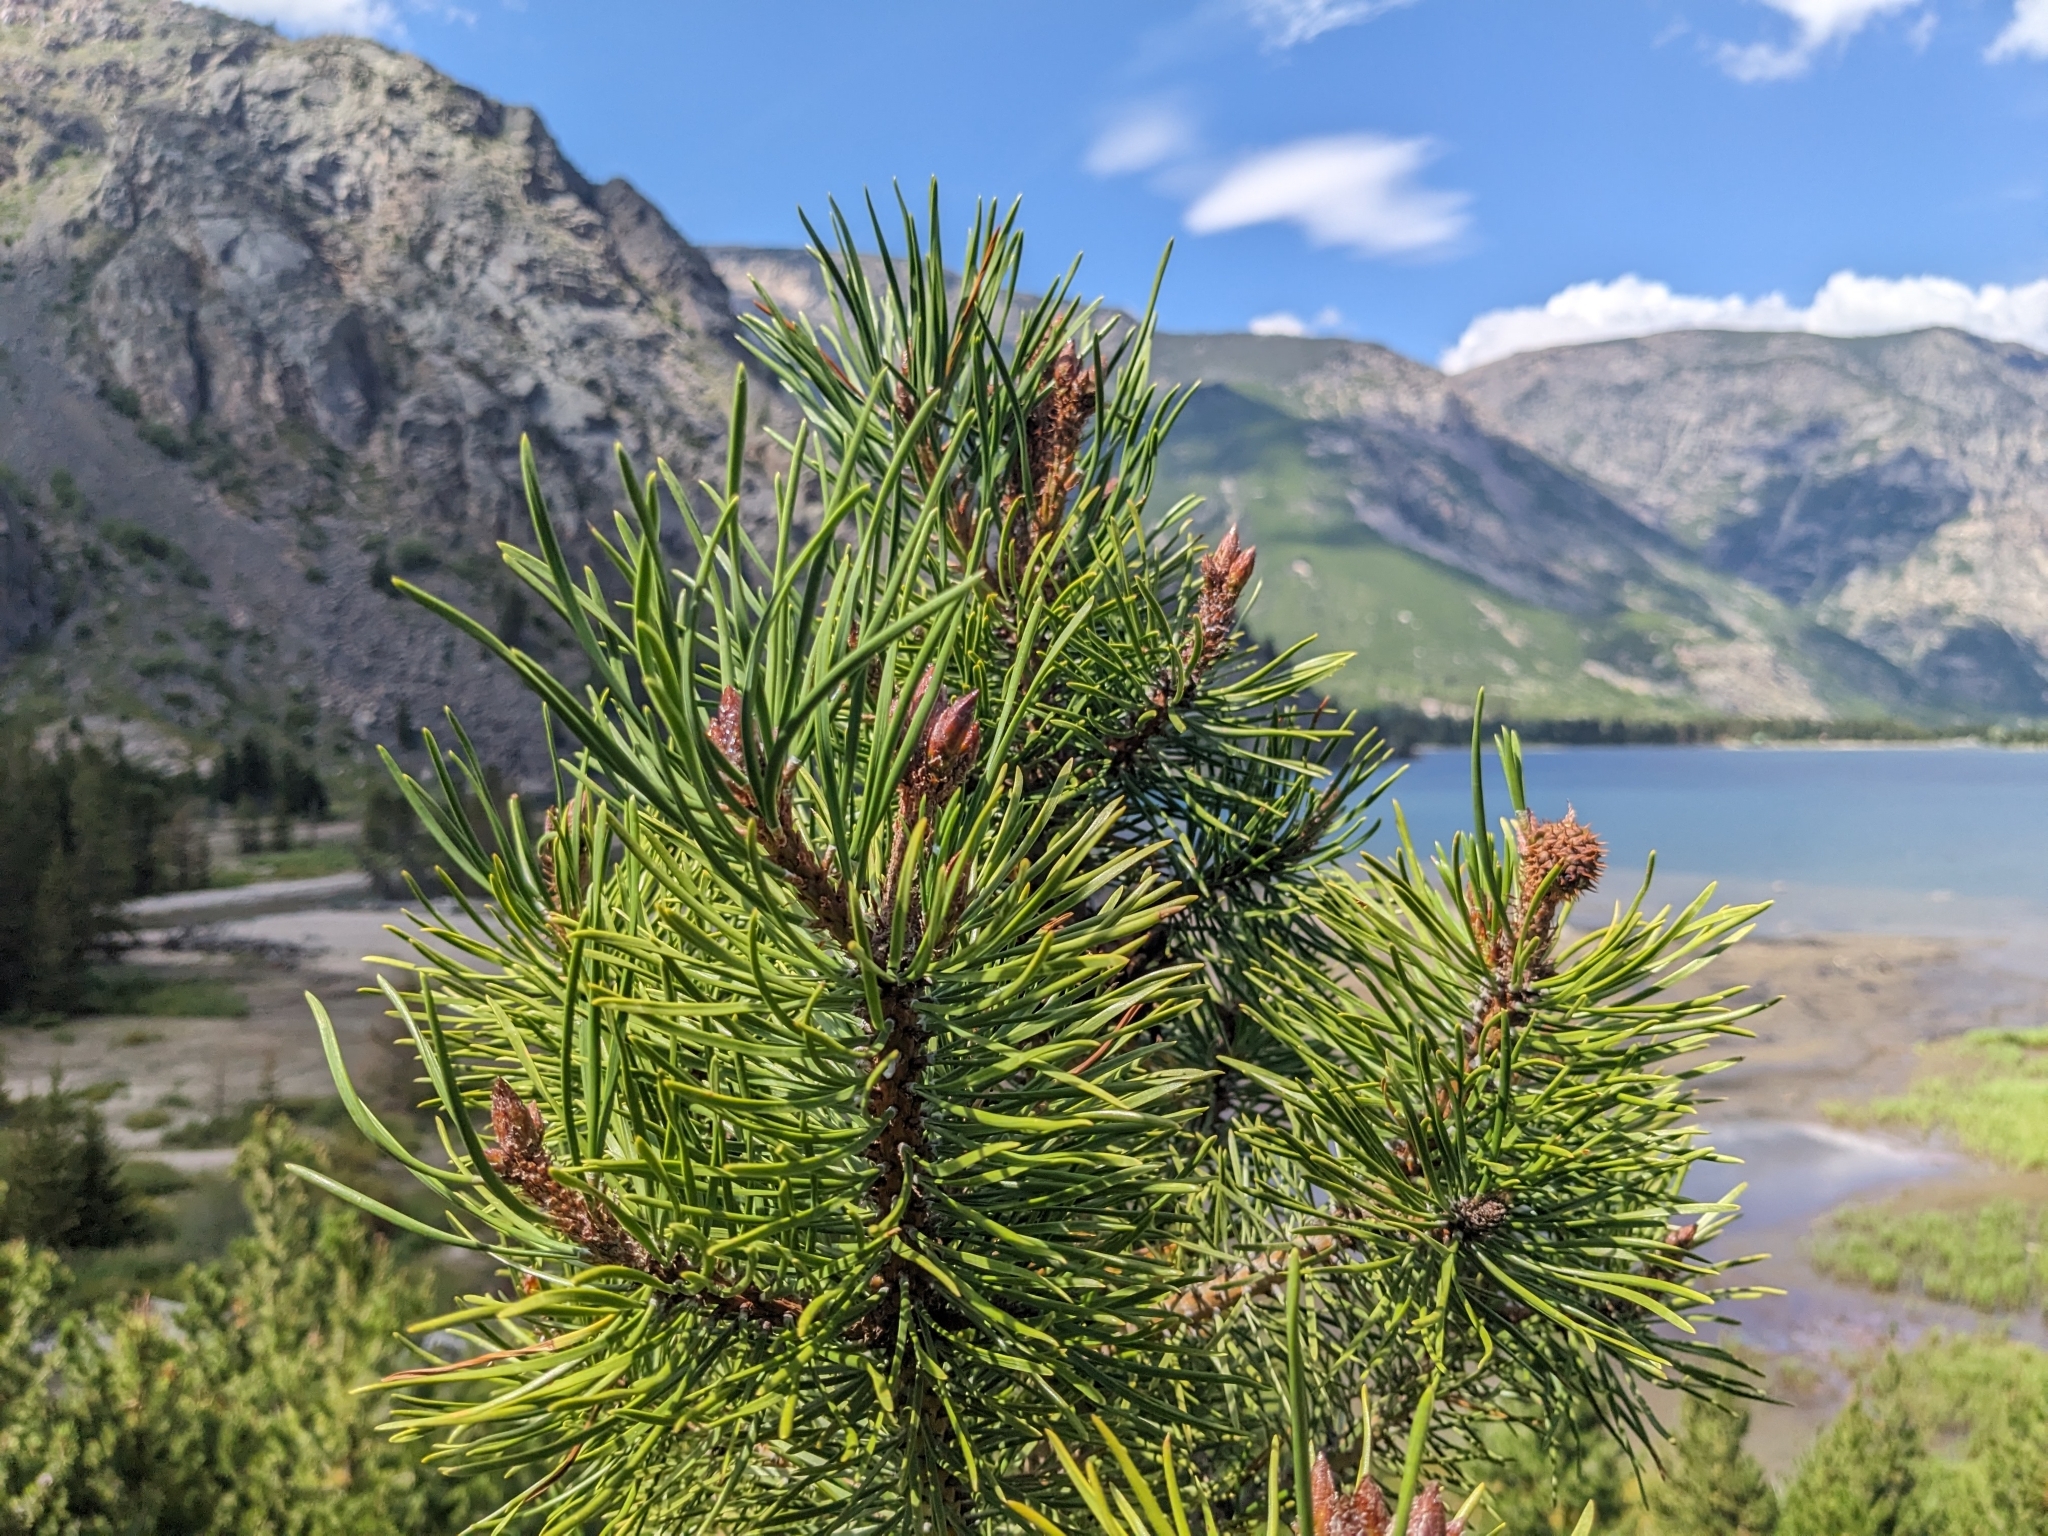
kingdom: Plantae
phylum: Tracheophyta
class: Pinopsida
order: Pinales
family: Pinaceae
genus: Pinus
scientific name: Pinus contorta
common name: Lodgepole pine
